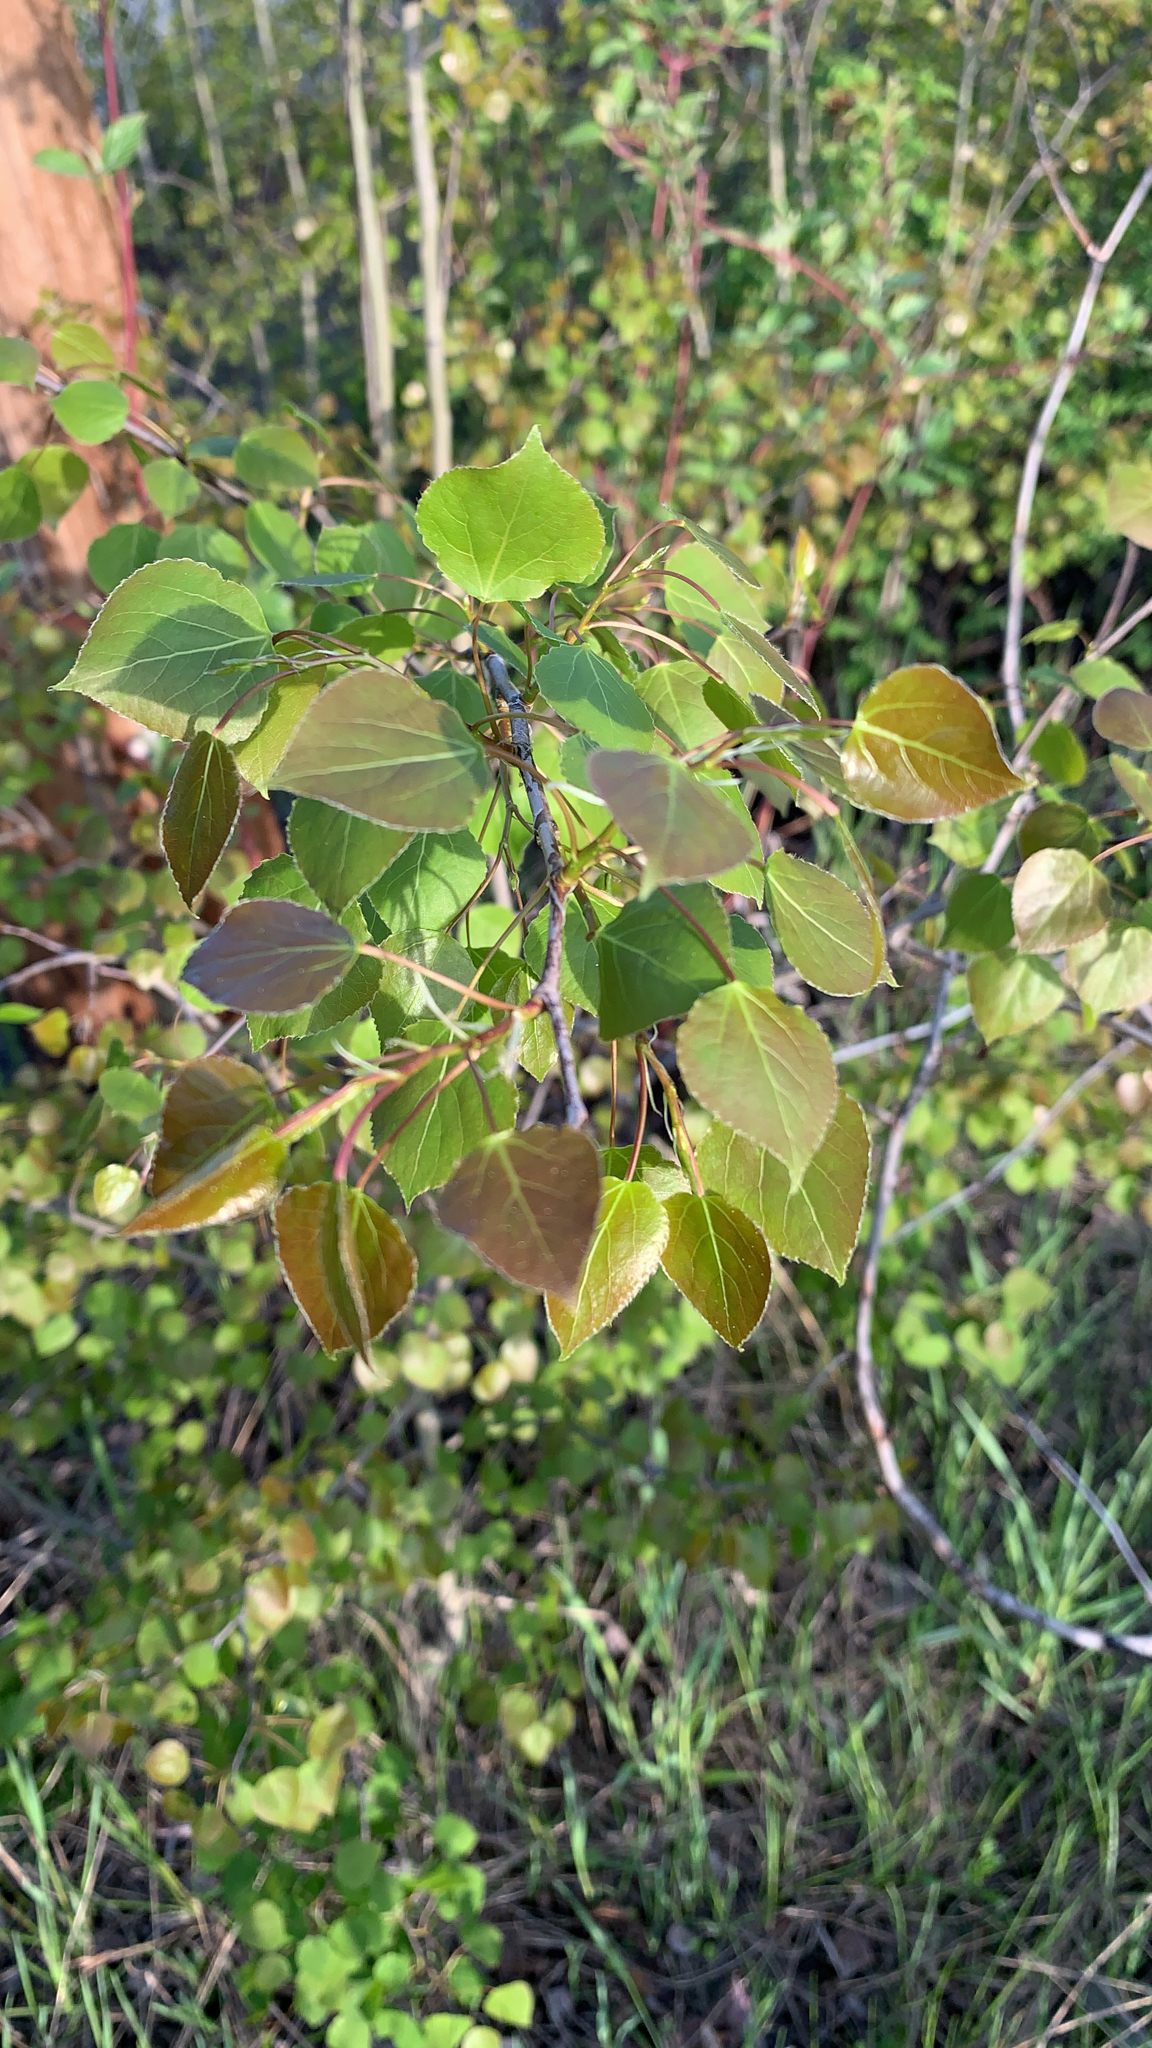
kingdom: Plantae
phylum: Tracheophyta
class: Magnoliopsida
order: Malpighiales
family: Salicaceae
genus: Populus
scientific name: Populus tremuloides
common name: Quaking aspen
